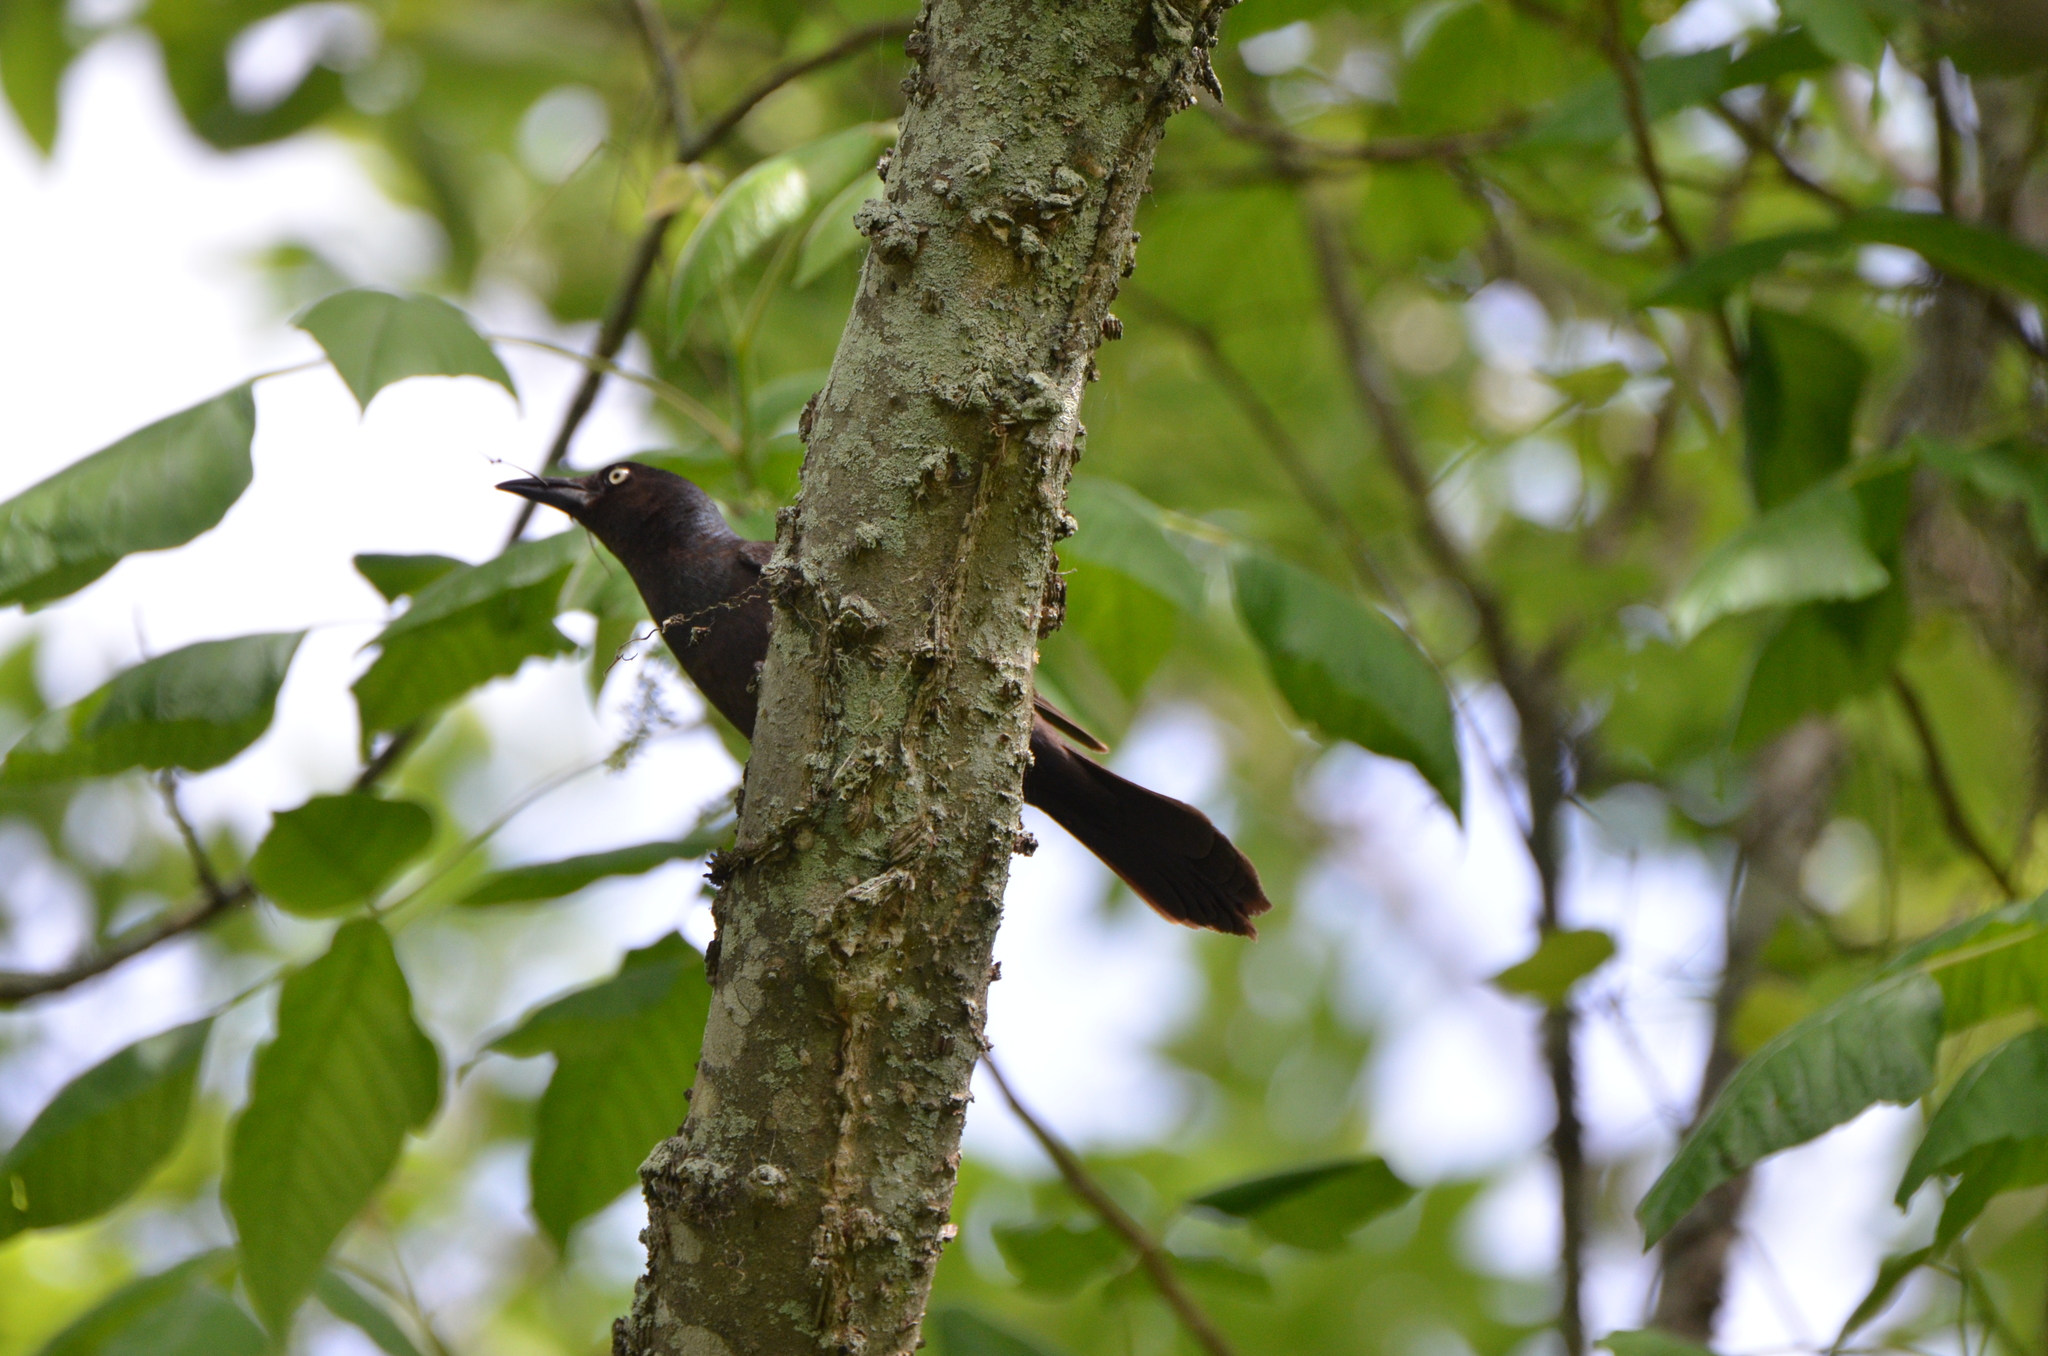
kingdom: Animalia
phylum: Chordata
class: Aves
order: Passeriformes
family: Icteridae
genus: Quiscalus
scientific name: Quiscalus quiscula
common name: Common grackle
